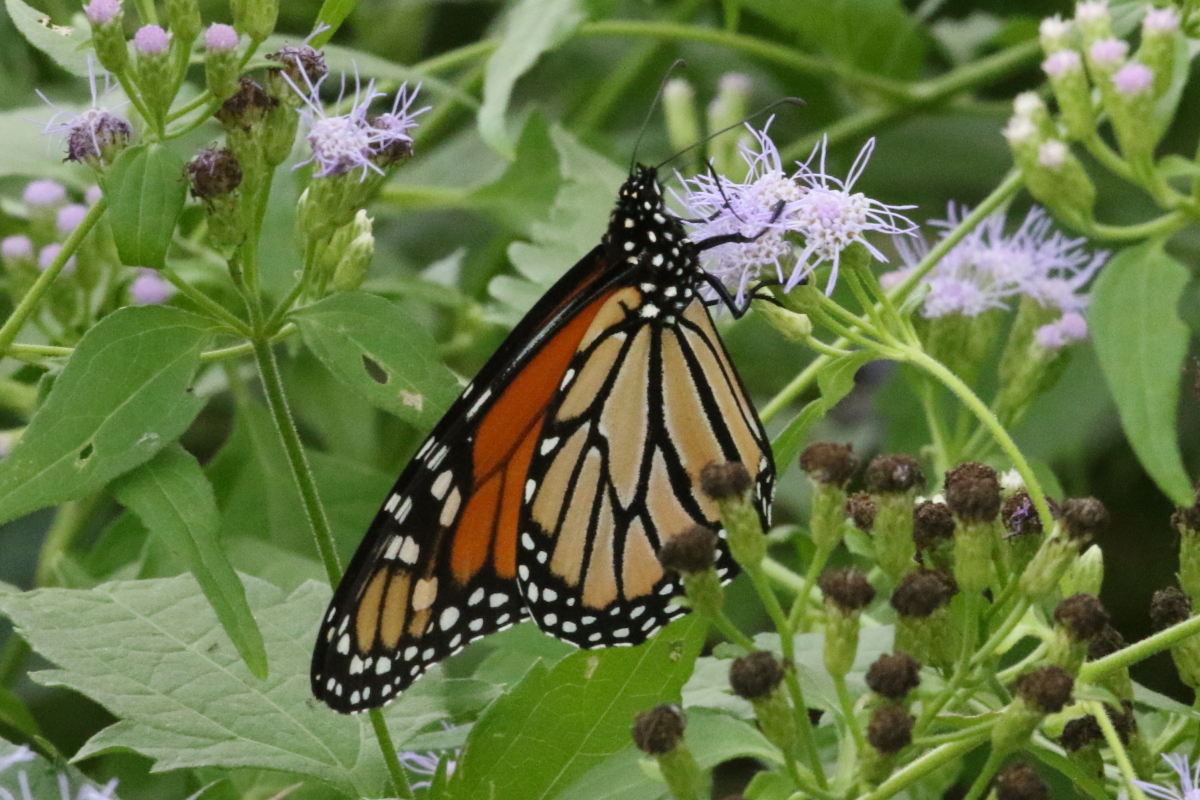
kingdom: Animalia
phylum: Arthropoda
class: Insecta
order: Lepidoptera
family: Nymphalidae
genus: Danaus
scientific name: Danaus plexippus
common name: Monarch
